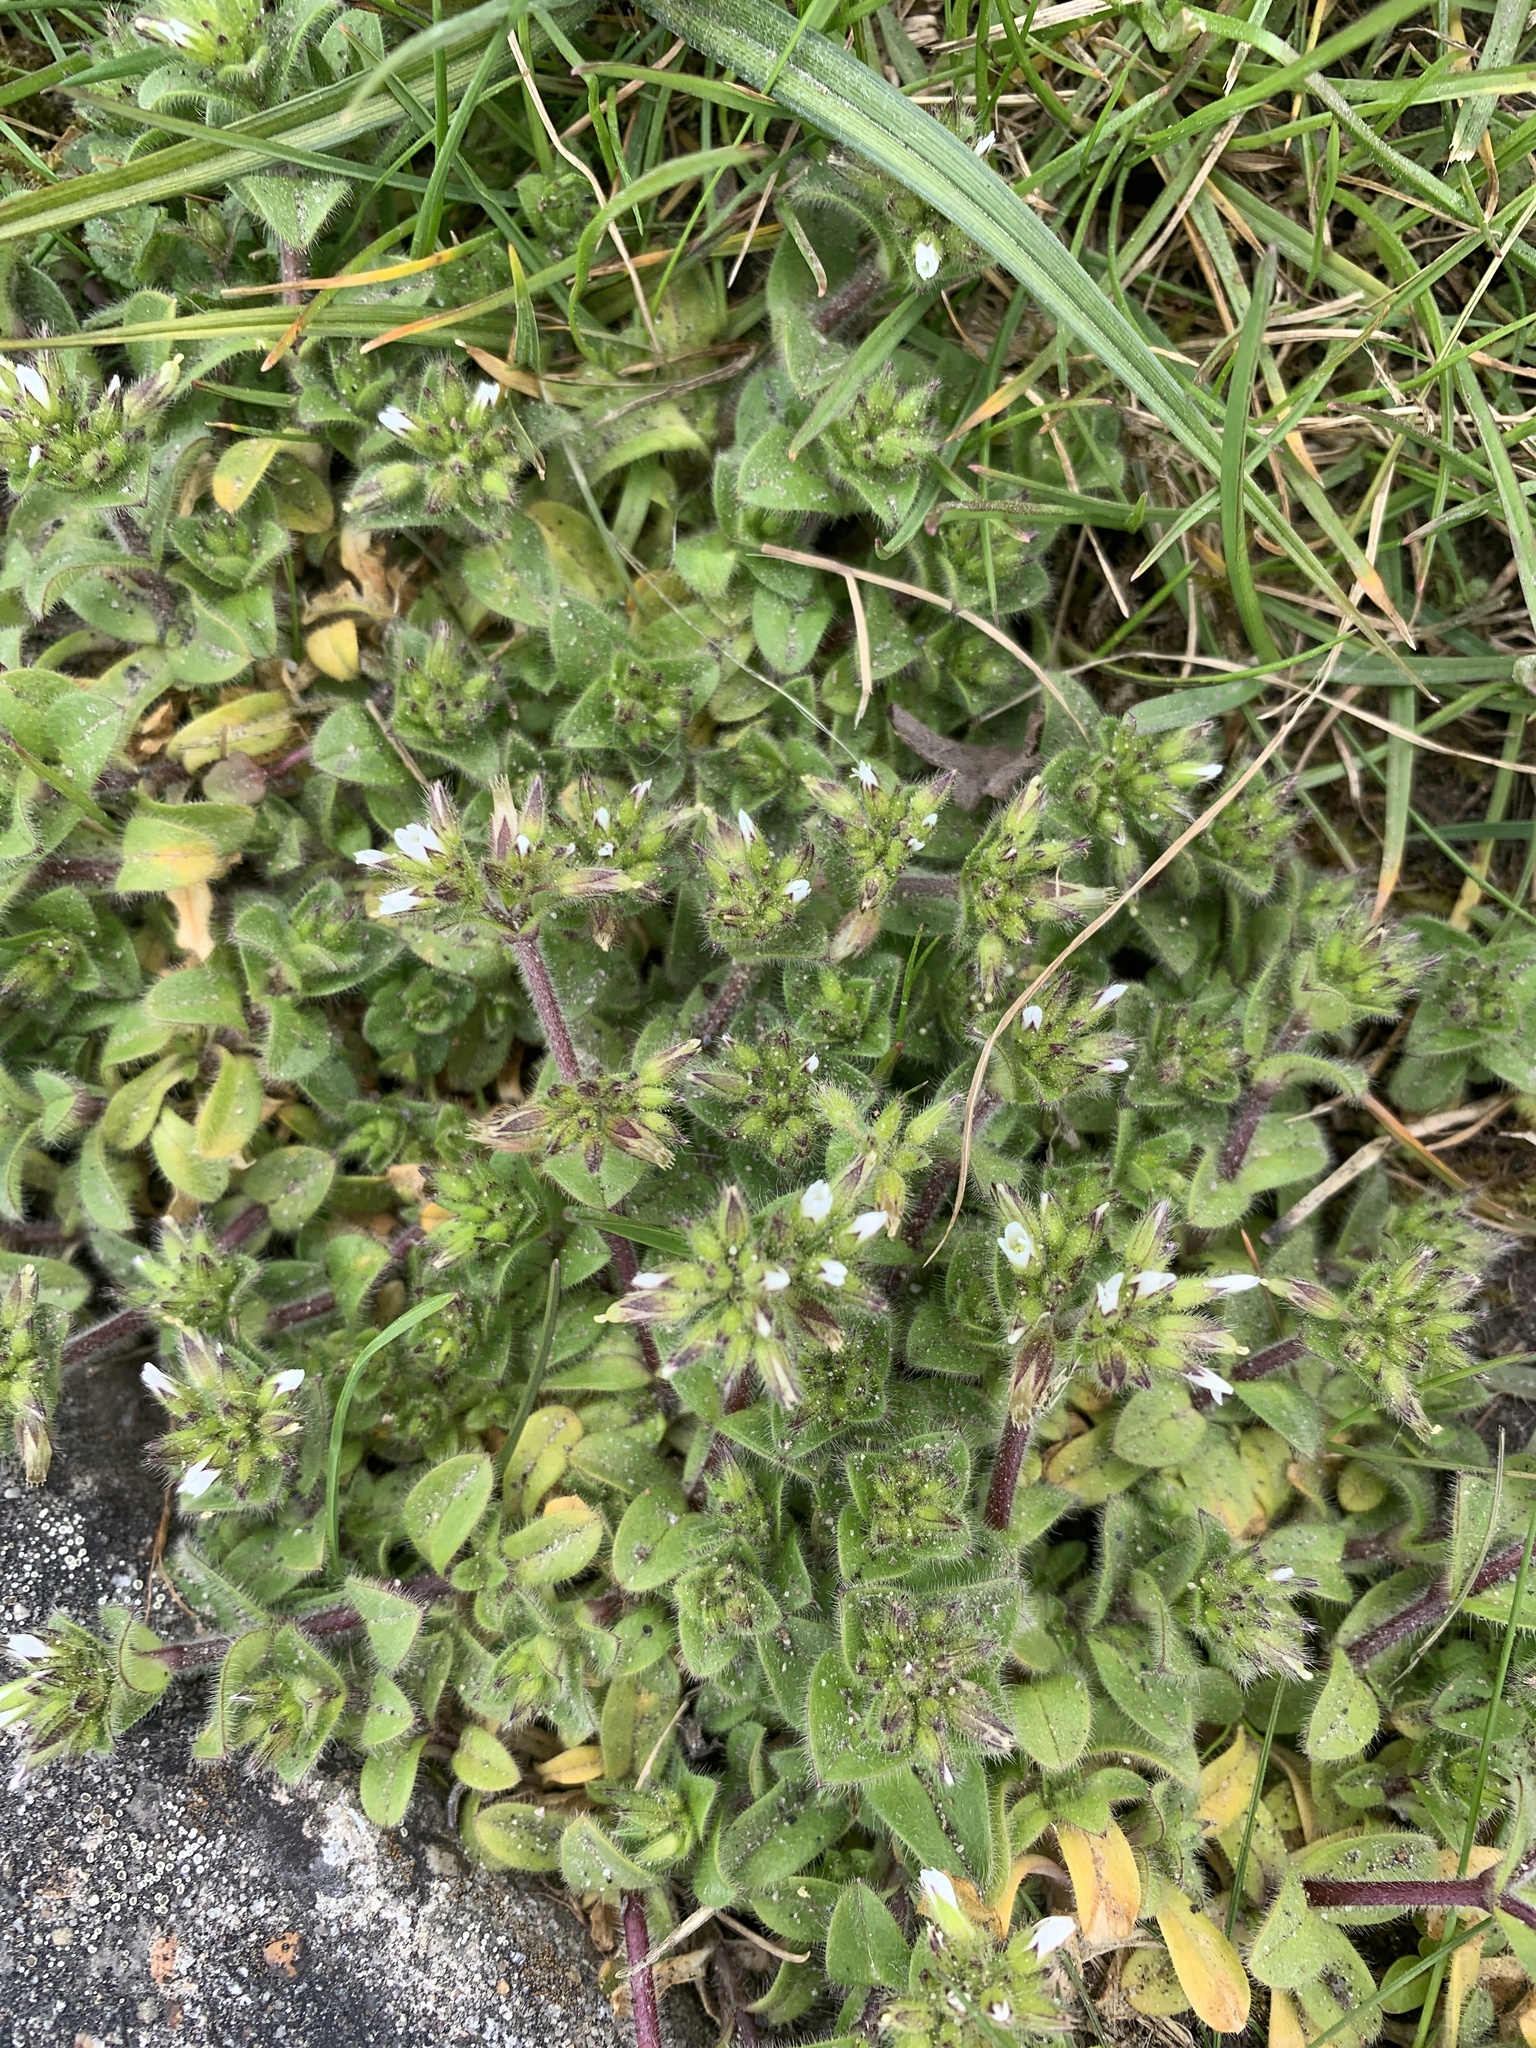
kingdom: Plantae
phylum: Tracheophyta
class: Magnoliopsida
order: Caryophyllales
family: Caryophyllaceae
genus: Cerastium
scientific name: Cerastium glomeratum
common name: Sticky chickweed
